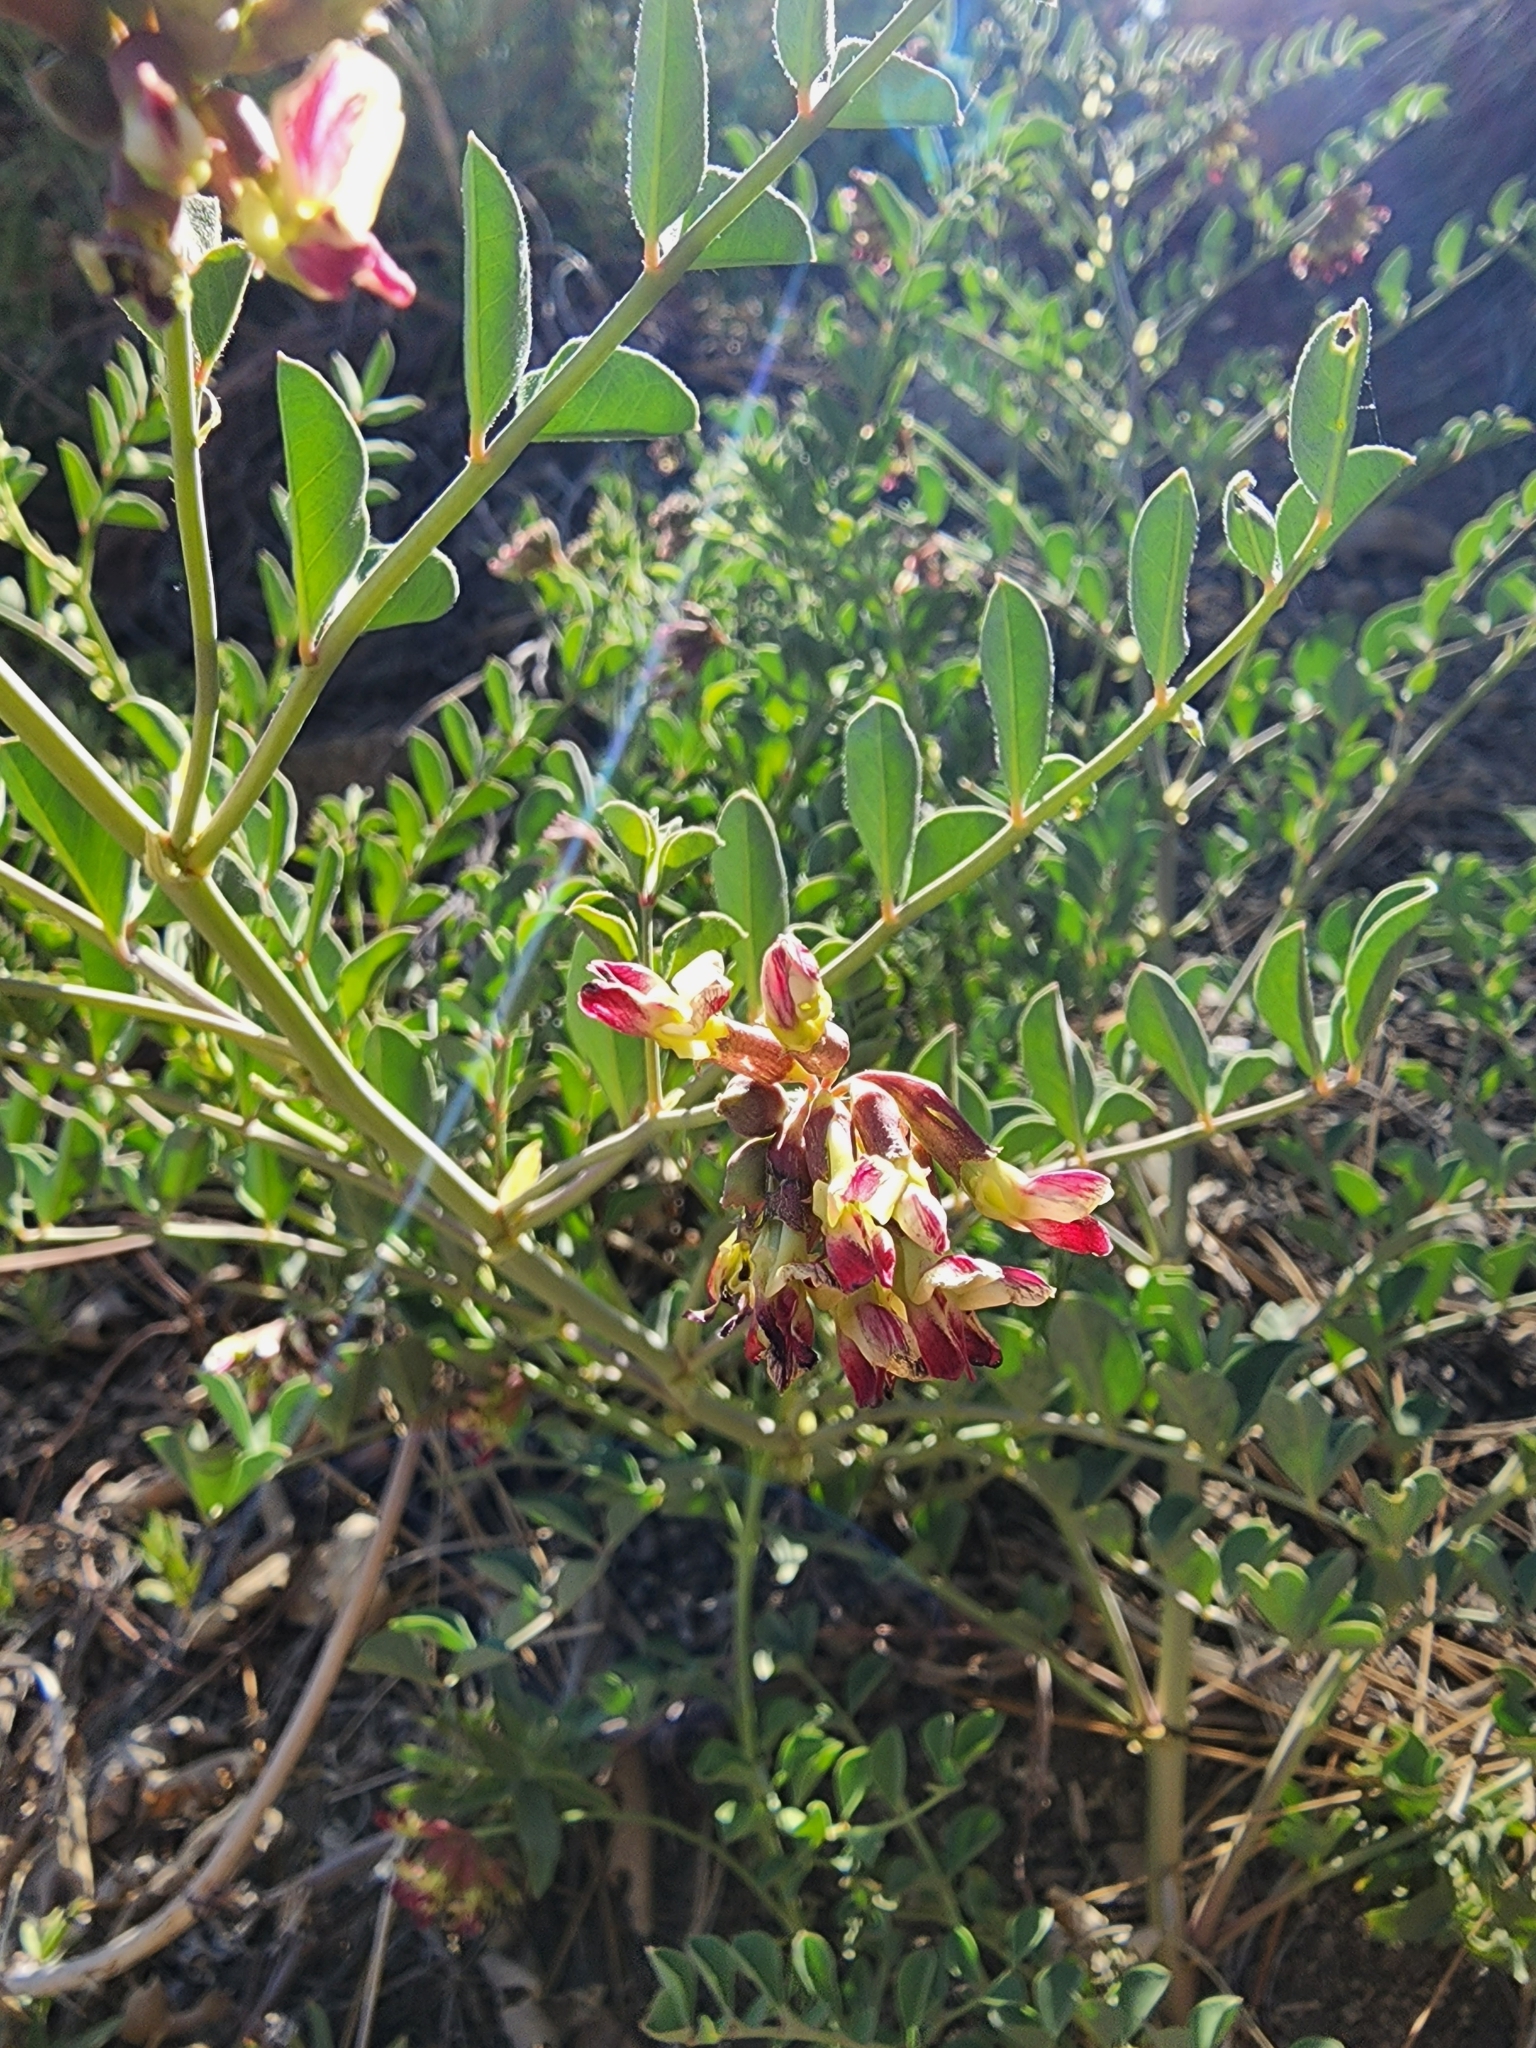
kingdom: Plantae
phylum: Tracheophyta
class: Magnoliopsida
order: Fabales
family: Fabaceae
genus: Hosackia
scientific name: Hosackia crassifolia
